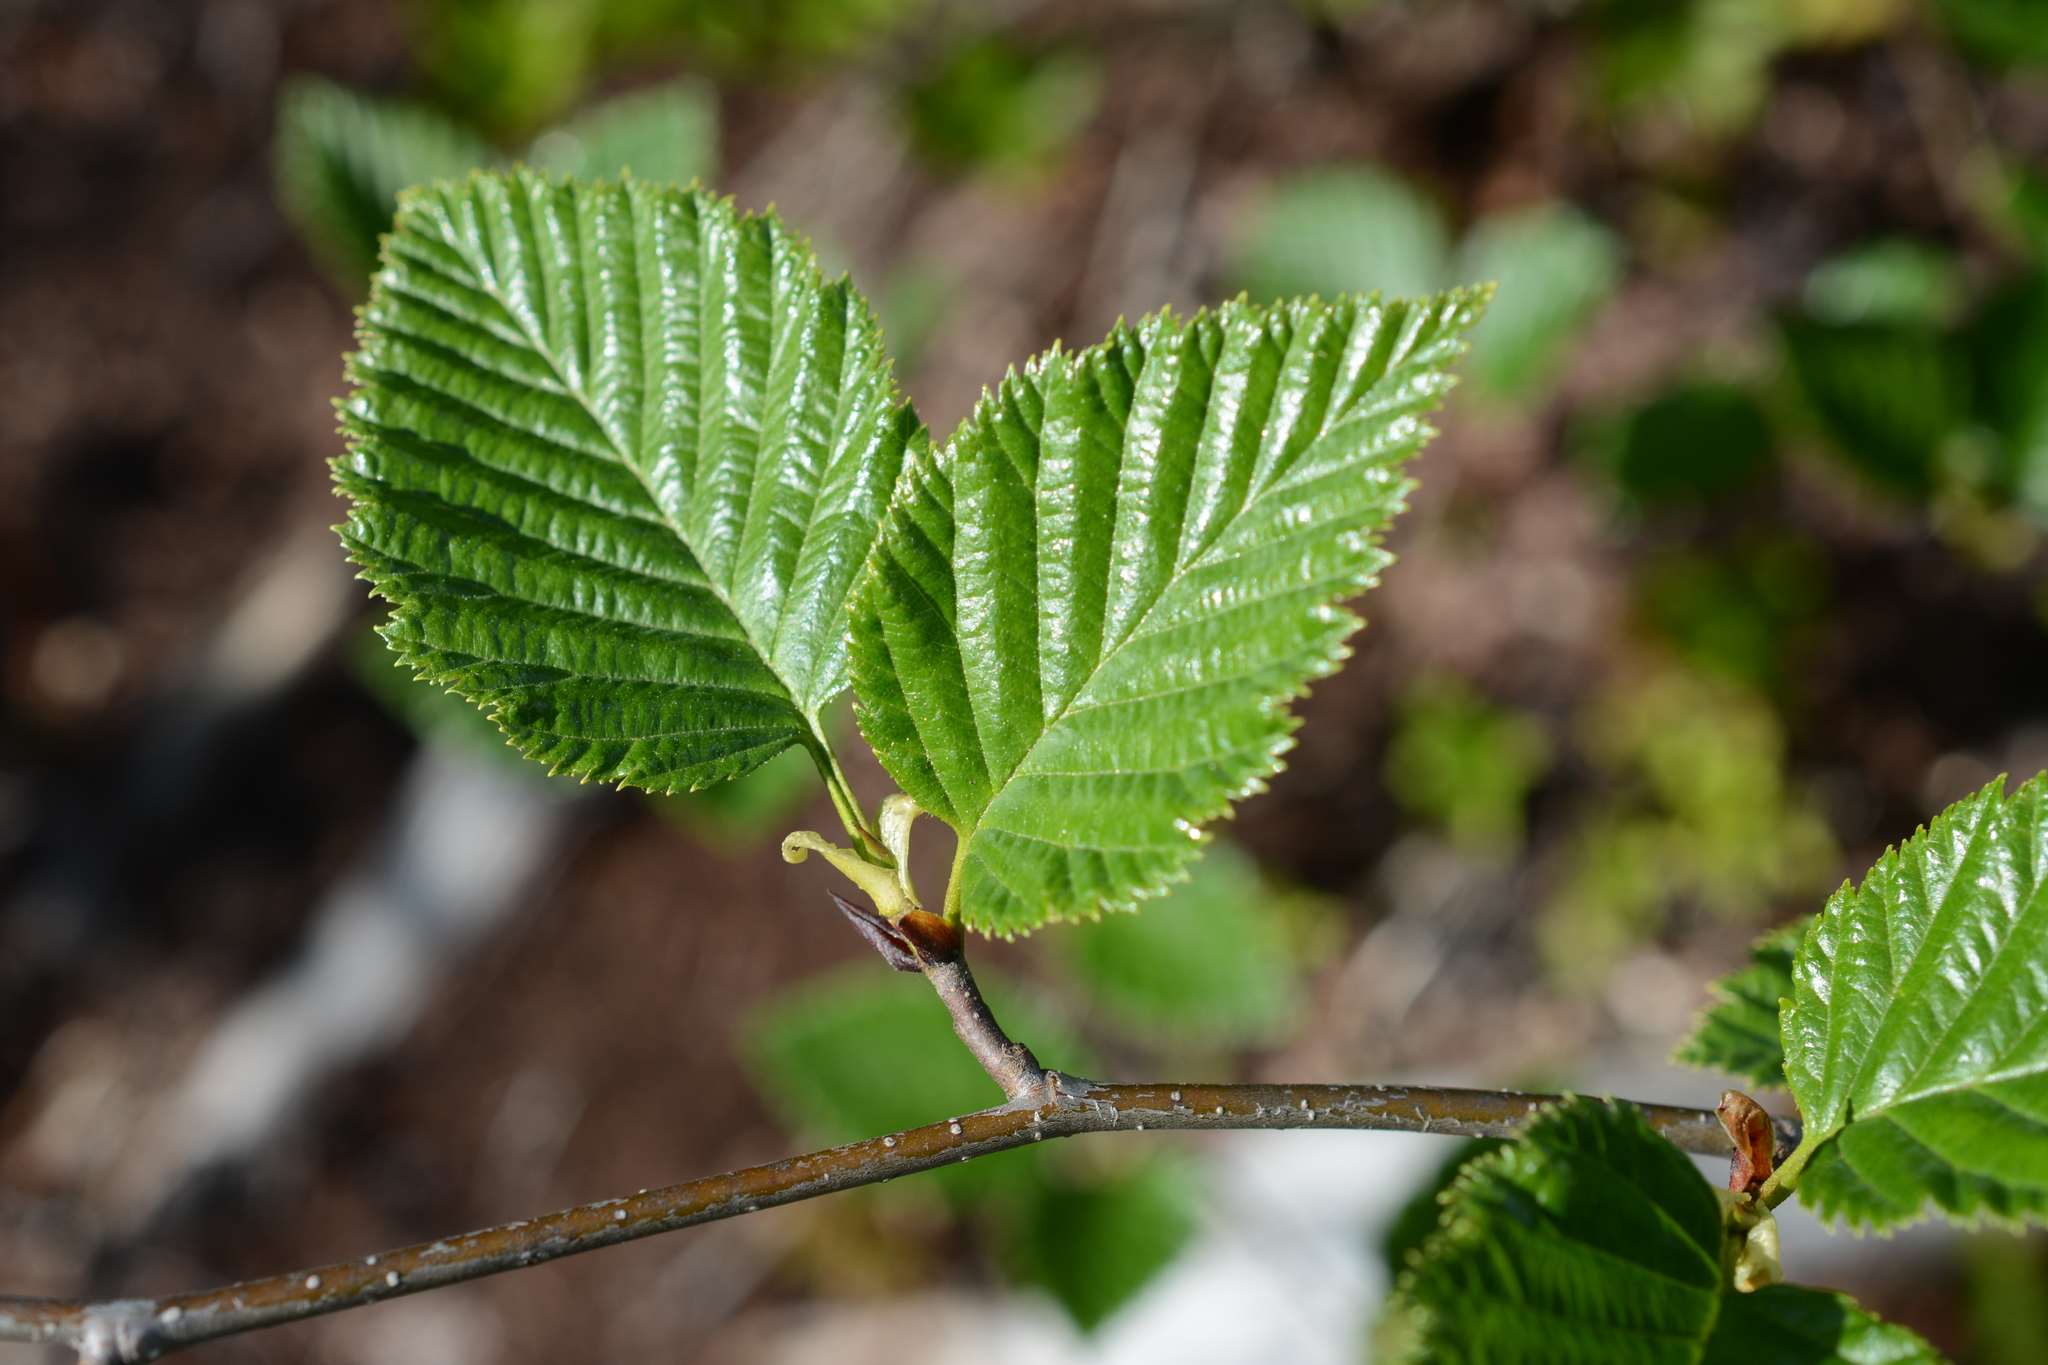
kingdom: Plantae
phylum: Tracheophyta
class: Magnoliopsida
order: Fagales
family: Betulaceae
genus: Alnus
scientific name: Alnus alnobetula
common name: Green alder
